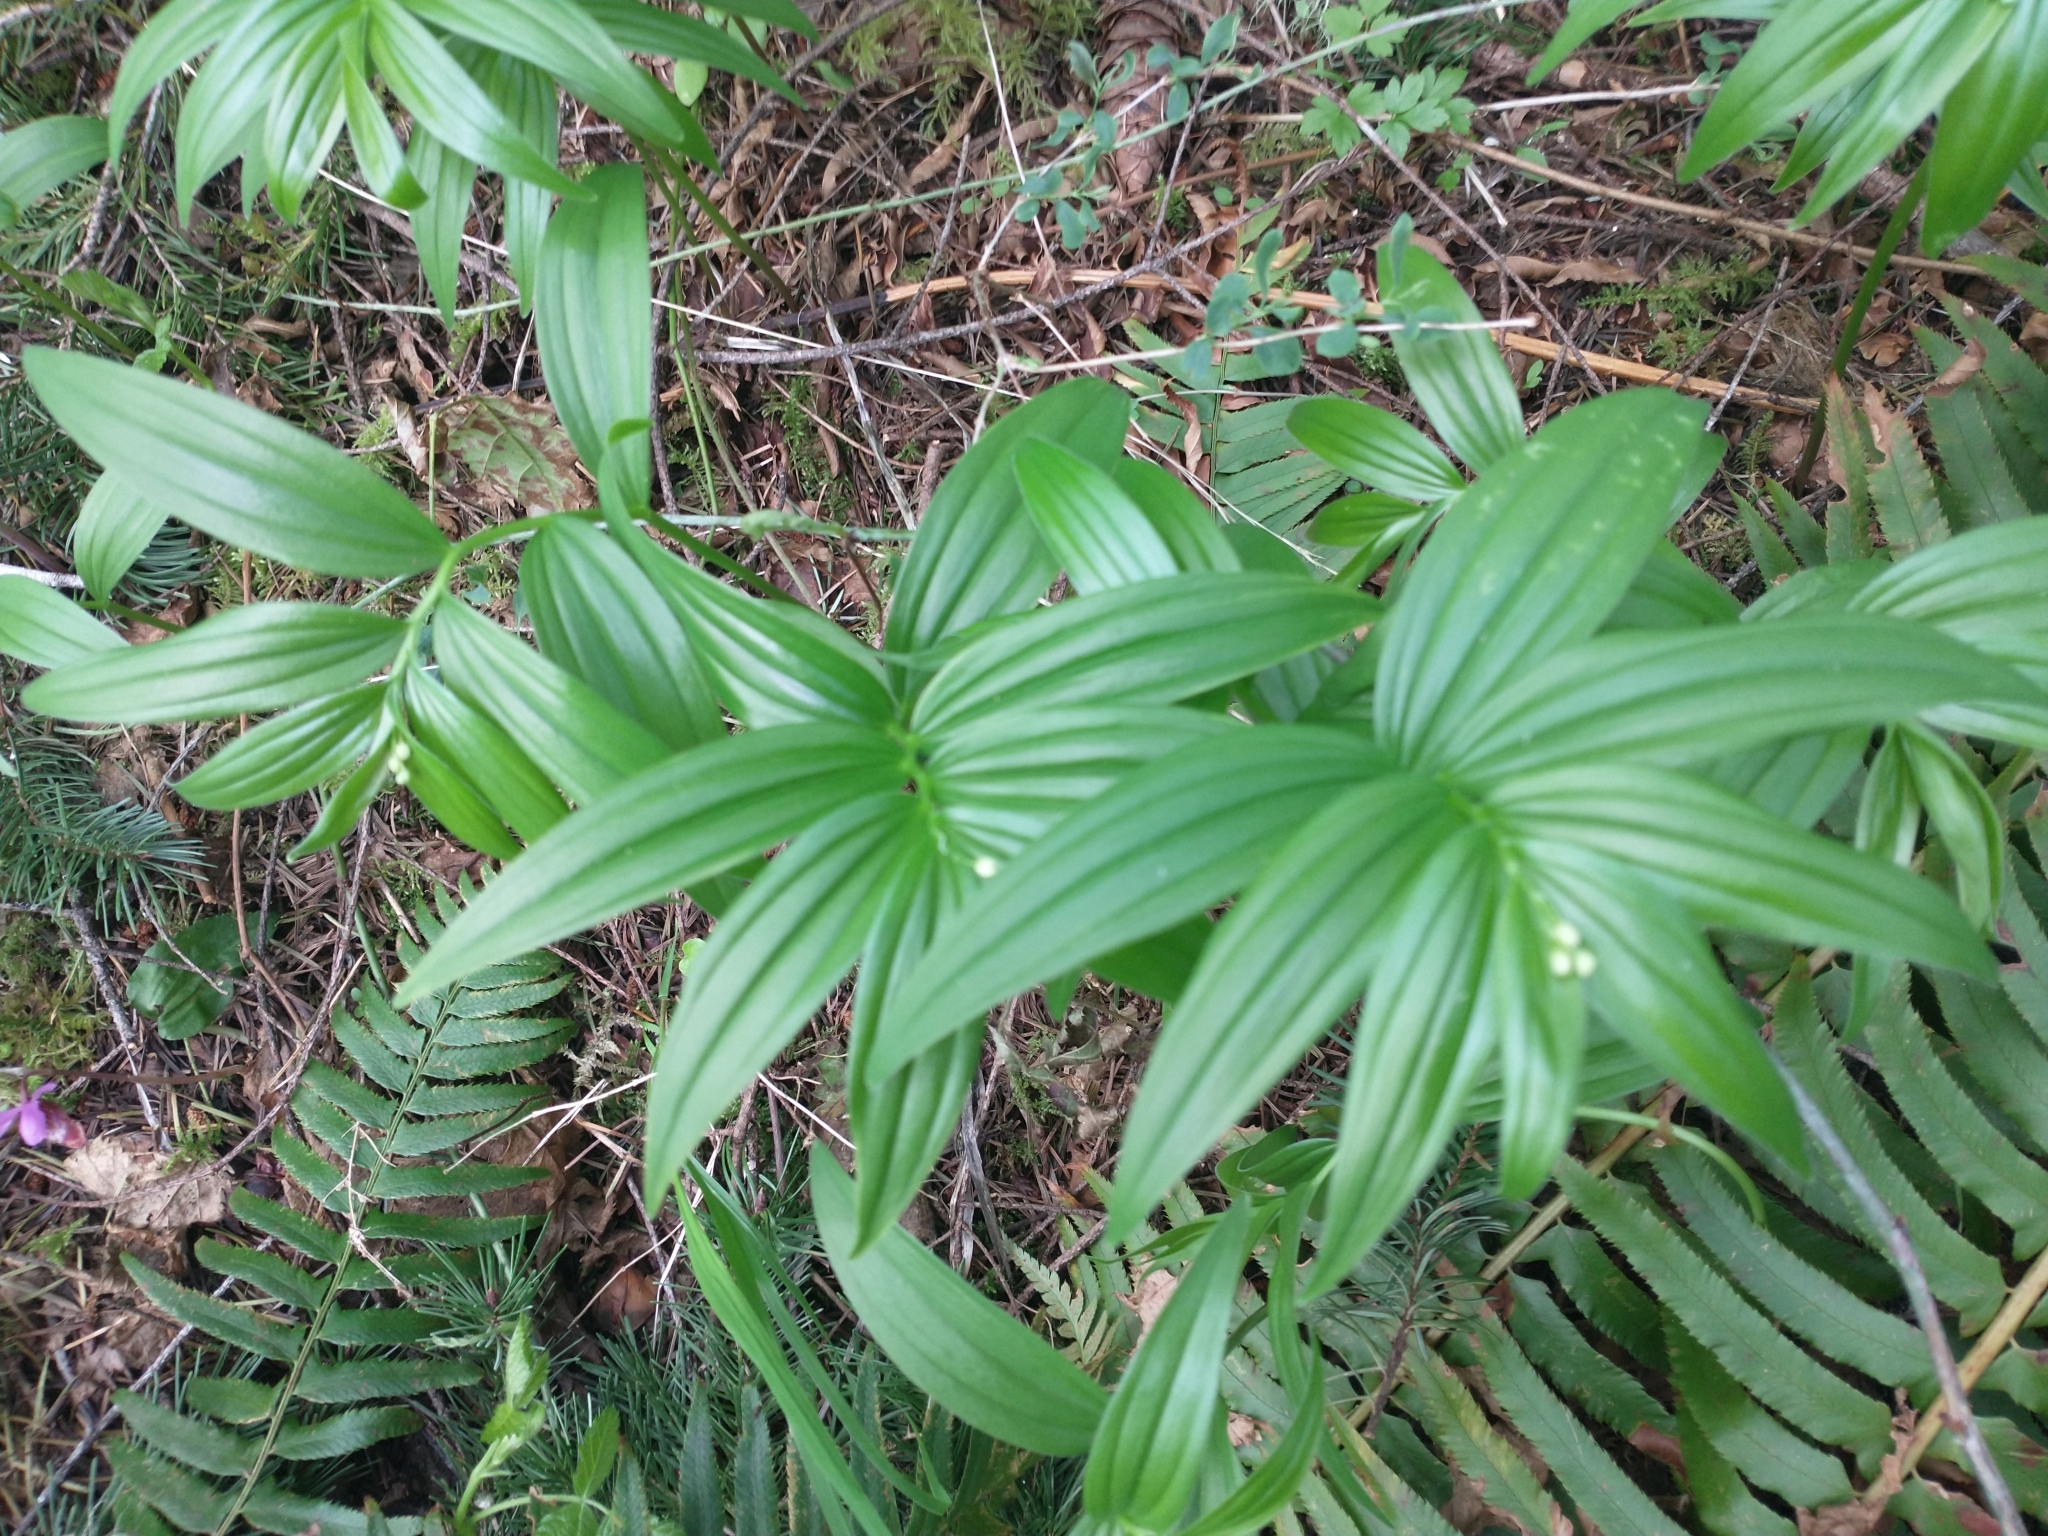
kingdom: Plantae
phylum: Tracheophyta
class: Liliopsida
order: Asparagales
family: Asparagaceae
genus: Maianthemum
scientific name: Maianthemum stellatum
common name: Little false solomon's seal
